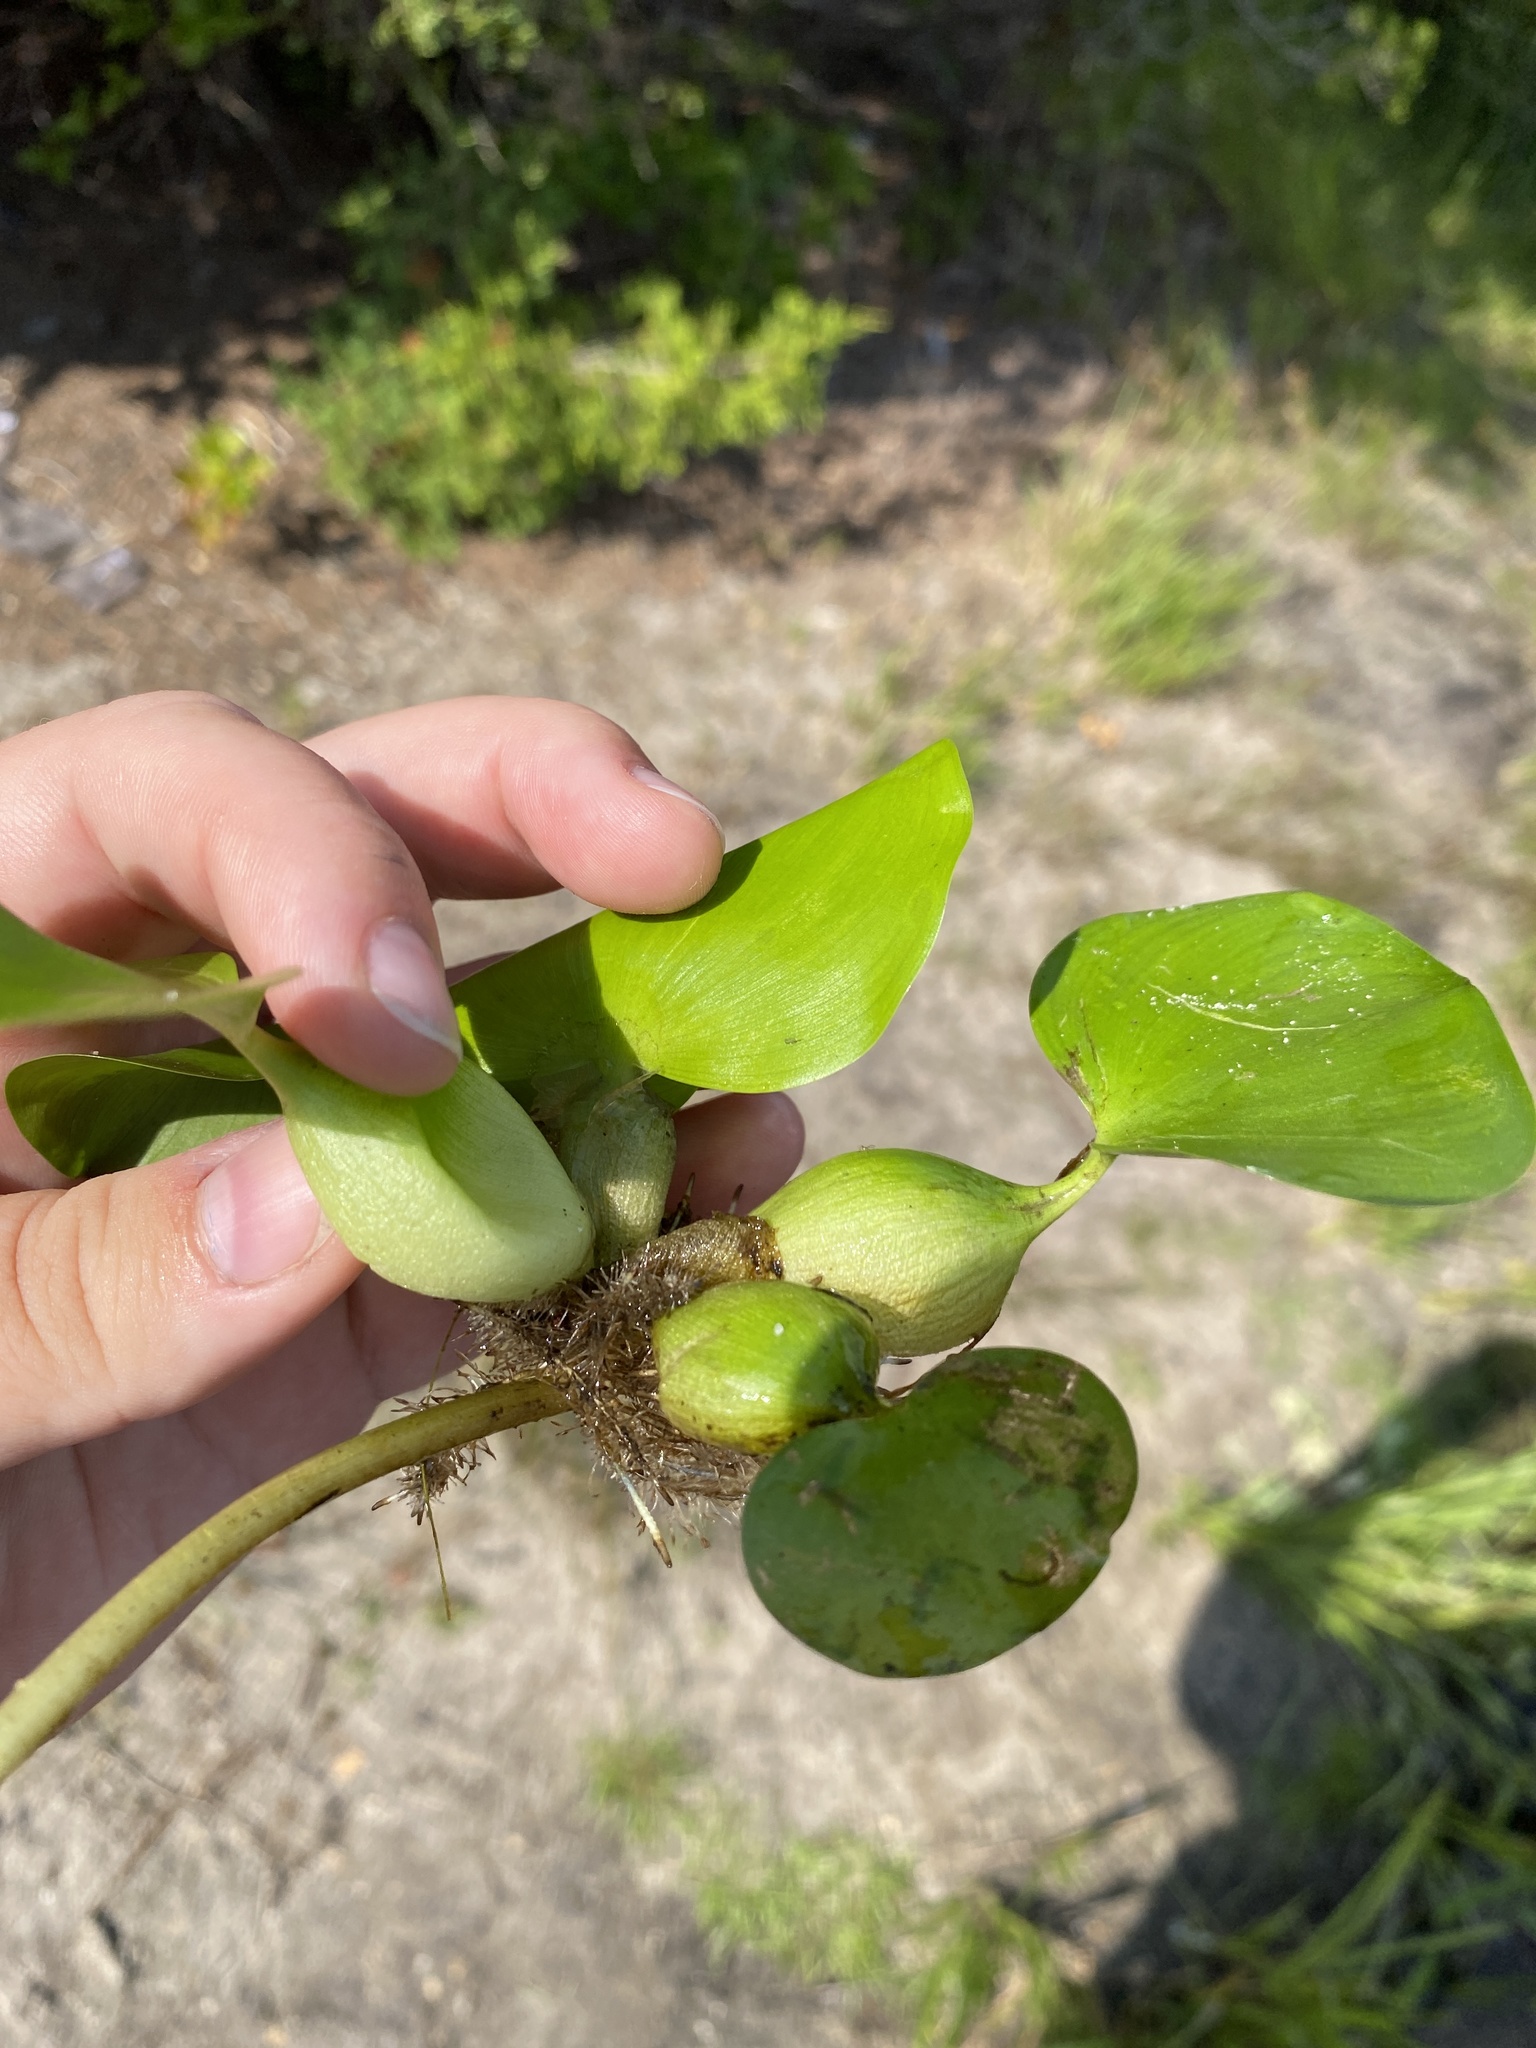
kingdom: Plantae
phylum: Tracheophyta
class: Liliopsida
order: Commelinales
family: Pontederiaceae
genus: Pontederia
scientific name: Pontederia crassipes
